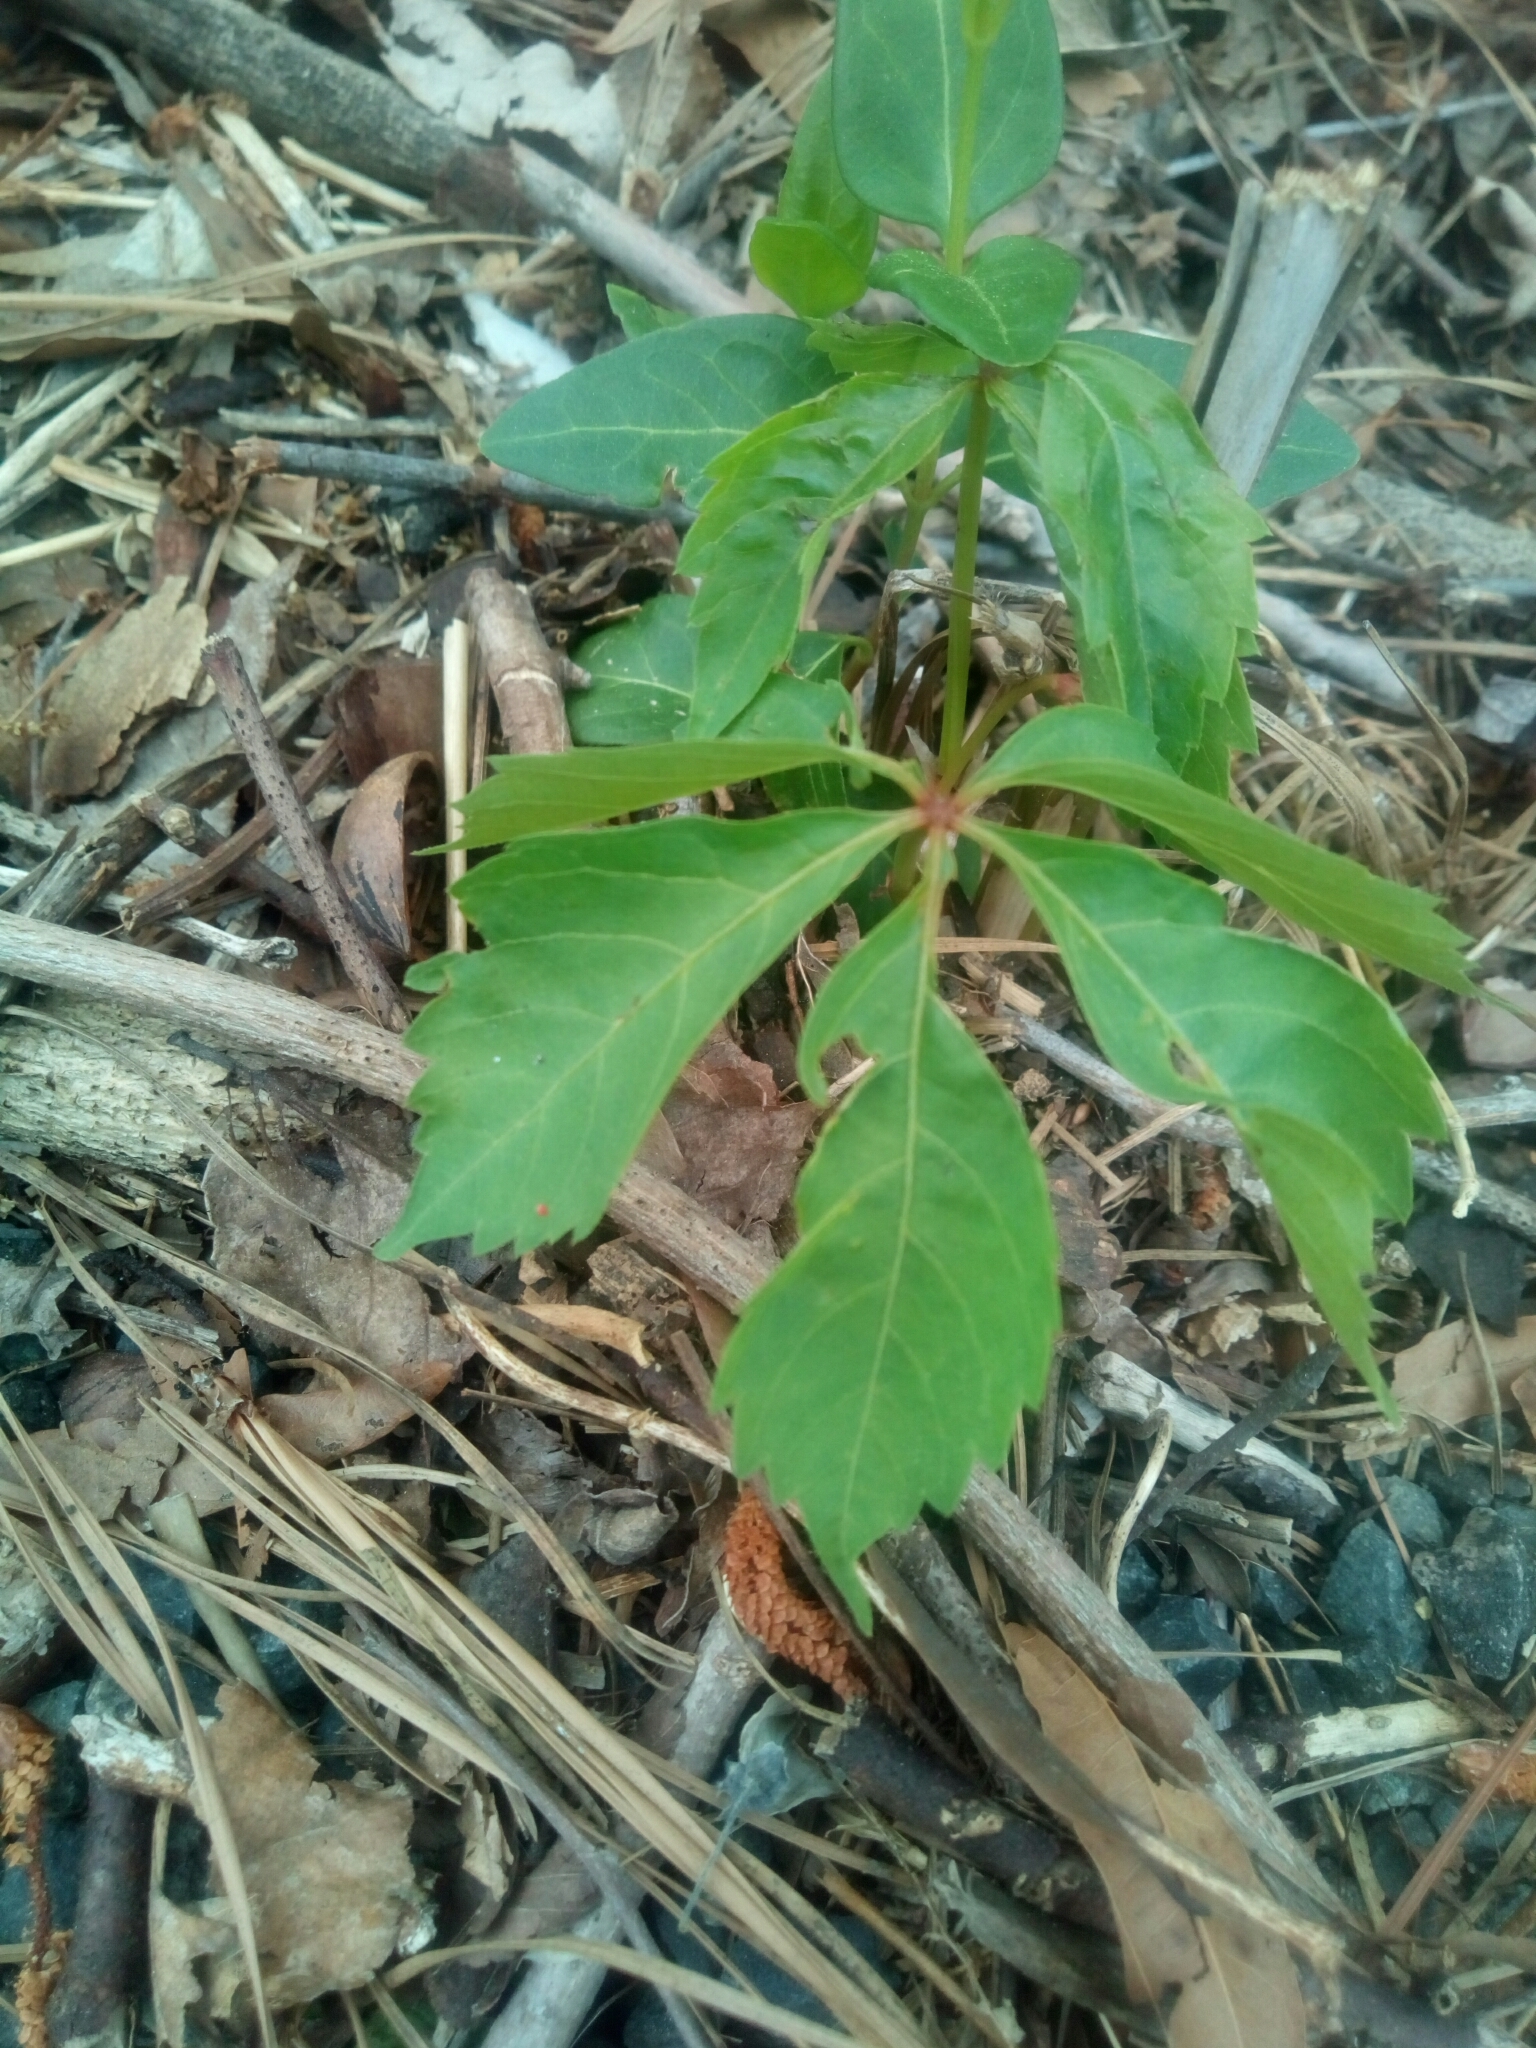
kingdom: Plantae
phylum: Tracheophyta
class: Magnoliopsida
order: Vitales
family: Vitaceae
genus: Parthenocissus
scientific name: Parthenocissus quinquefolia
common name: Virginia-creeper
